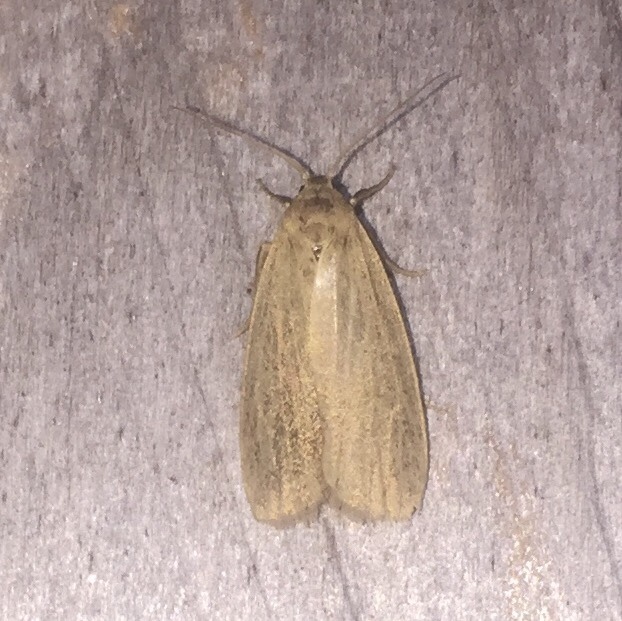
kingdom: Animalia
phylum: Arthropoda
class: Insecta
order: Lepidoptera
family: Erebidae
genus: Crambidia
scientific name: Crambidia pallida
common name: Pale lichen moth
